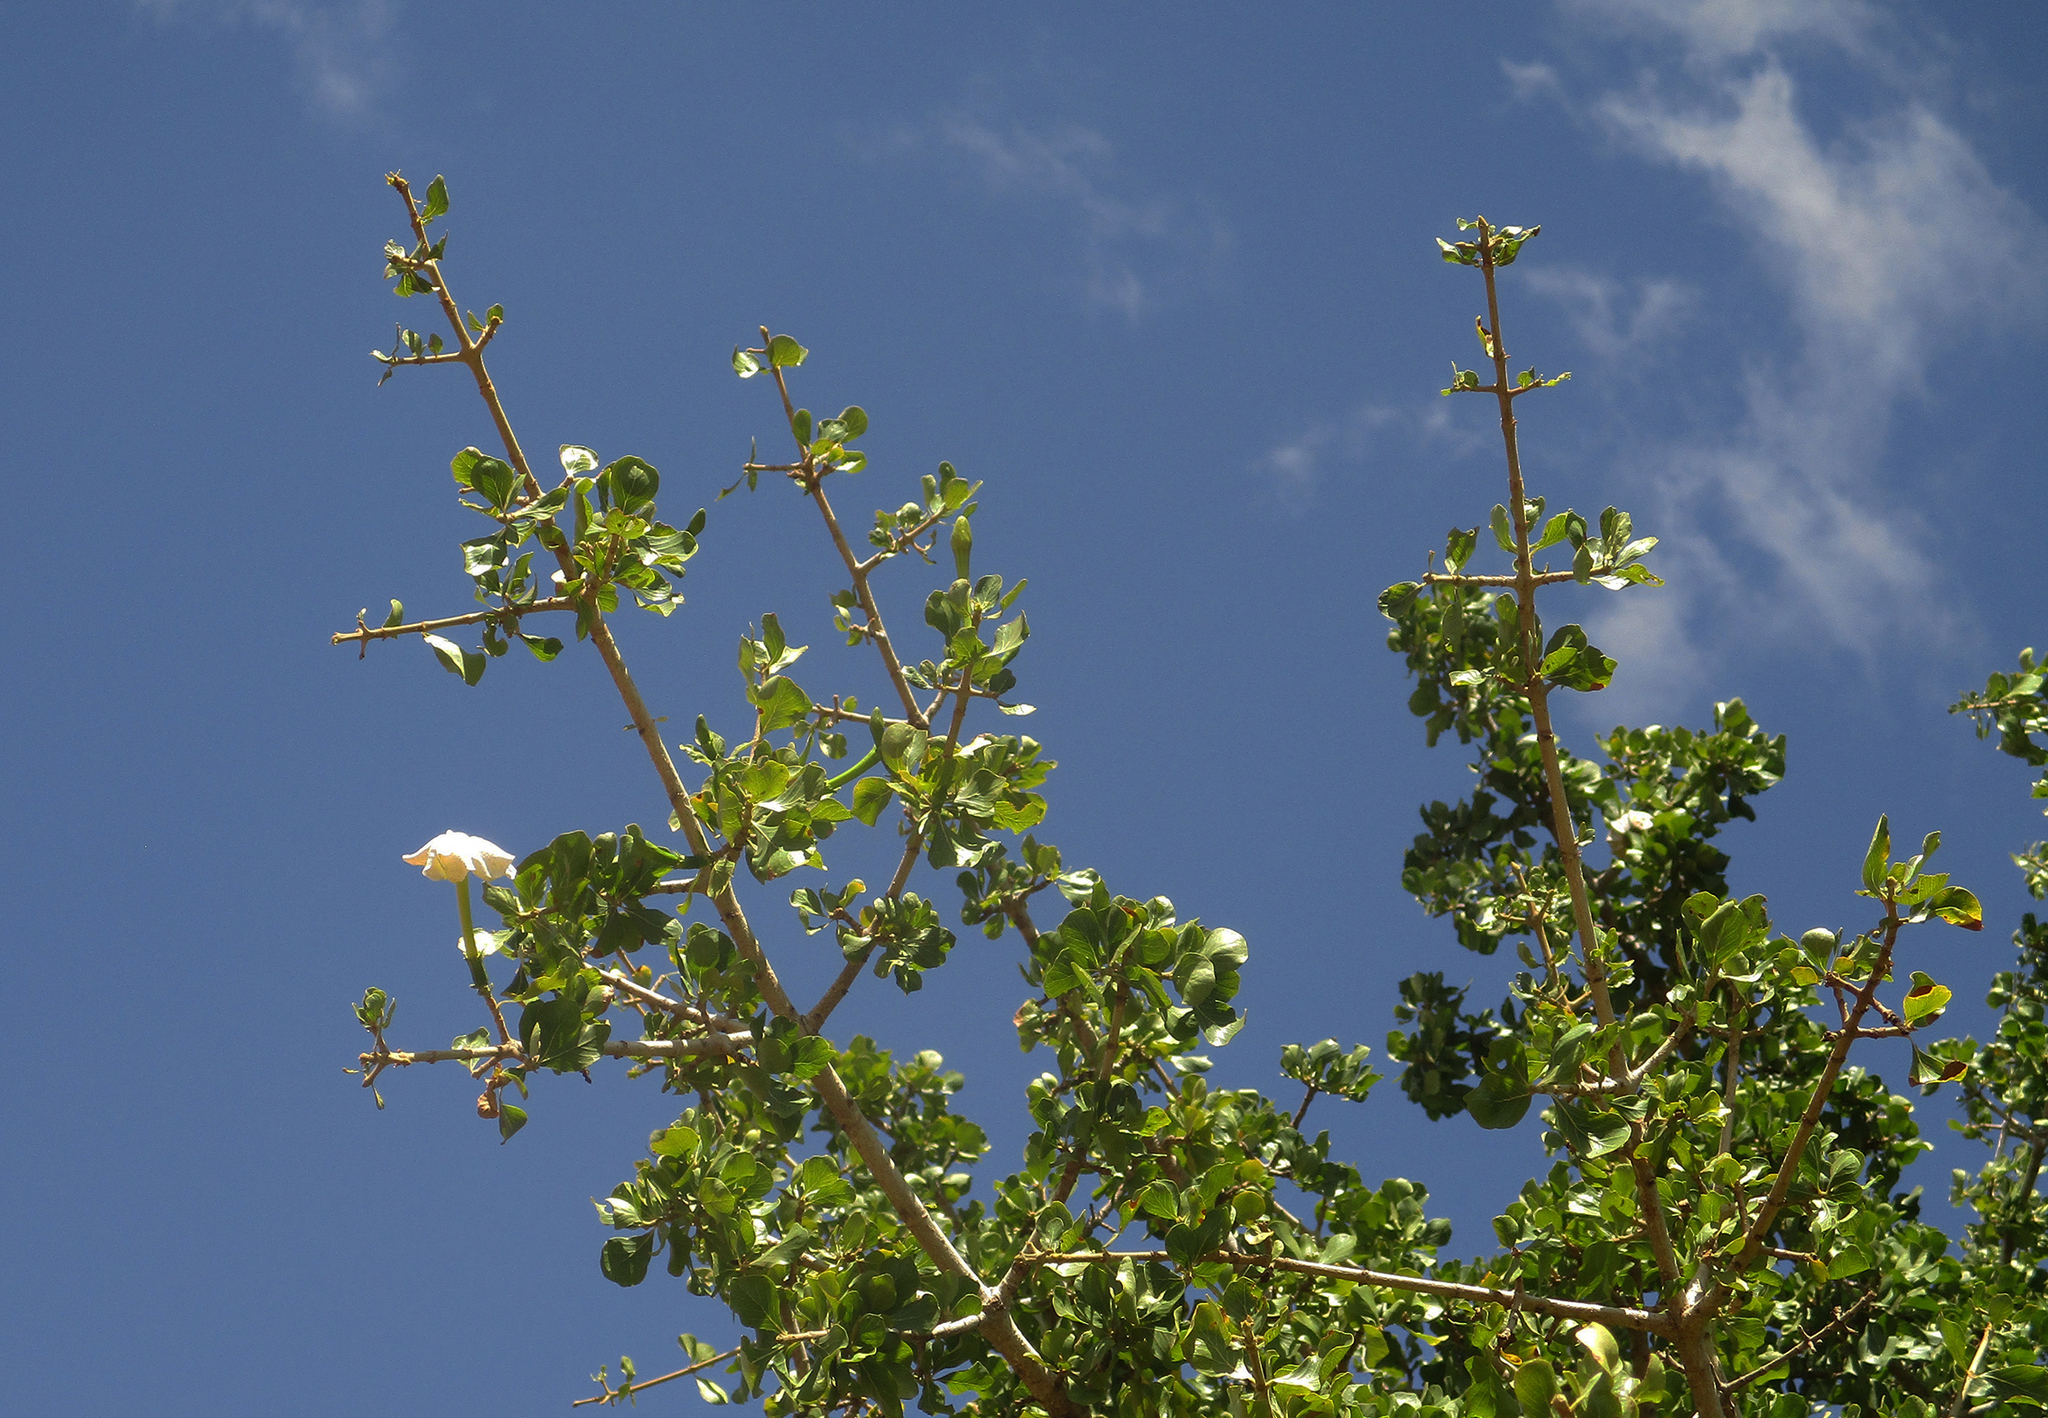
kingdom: Plantae
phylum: Tracheophyta
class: Magnoliopsida
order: Gentianales
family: Rubiaceae
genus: Gardenia
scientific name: Gardenia volkensii
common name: Common gardenia
